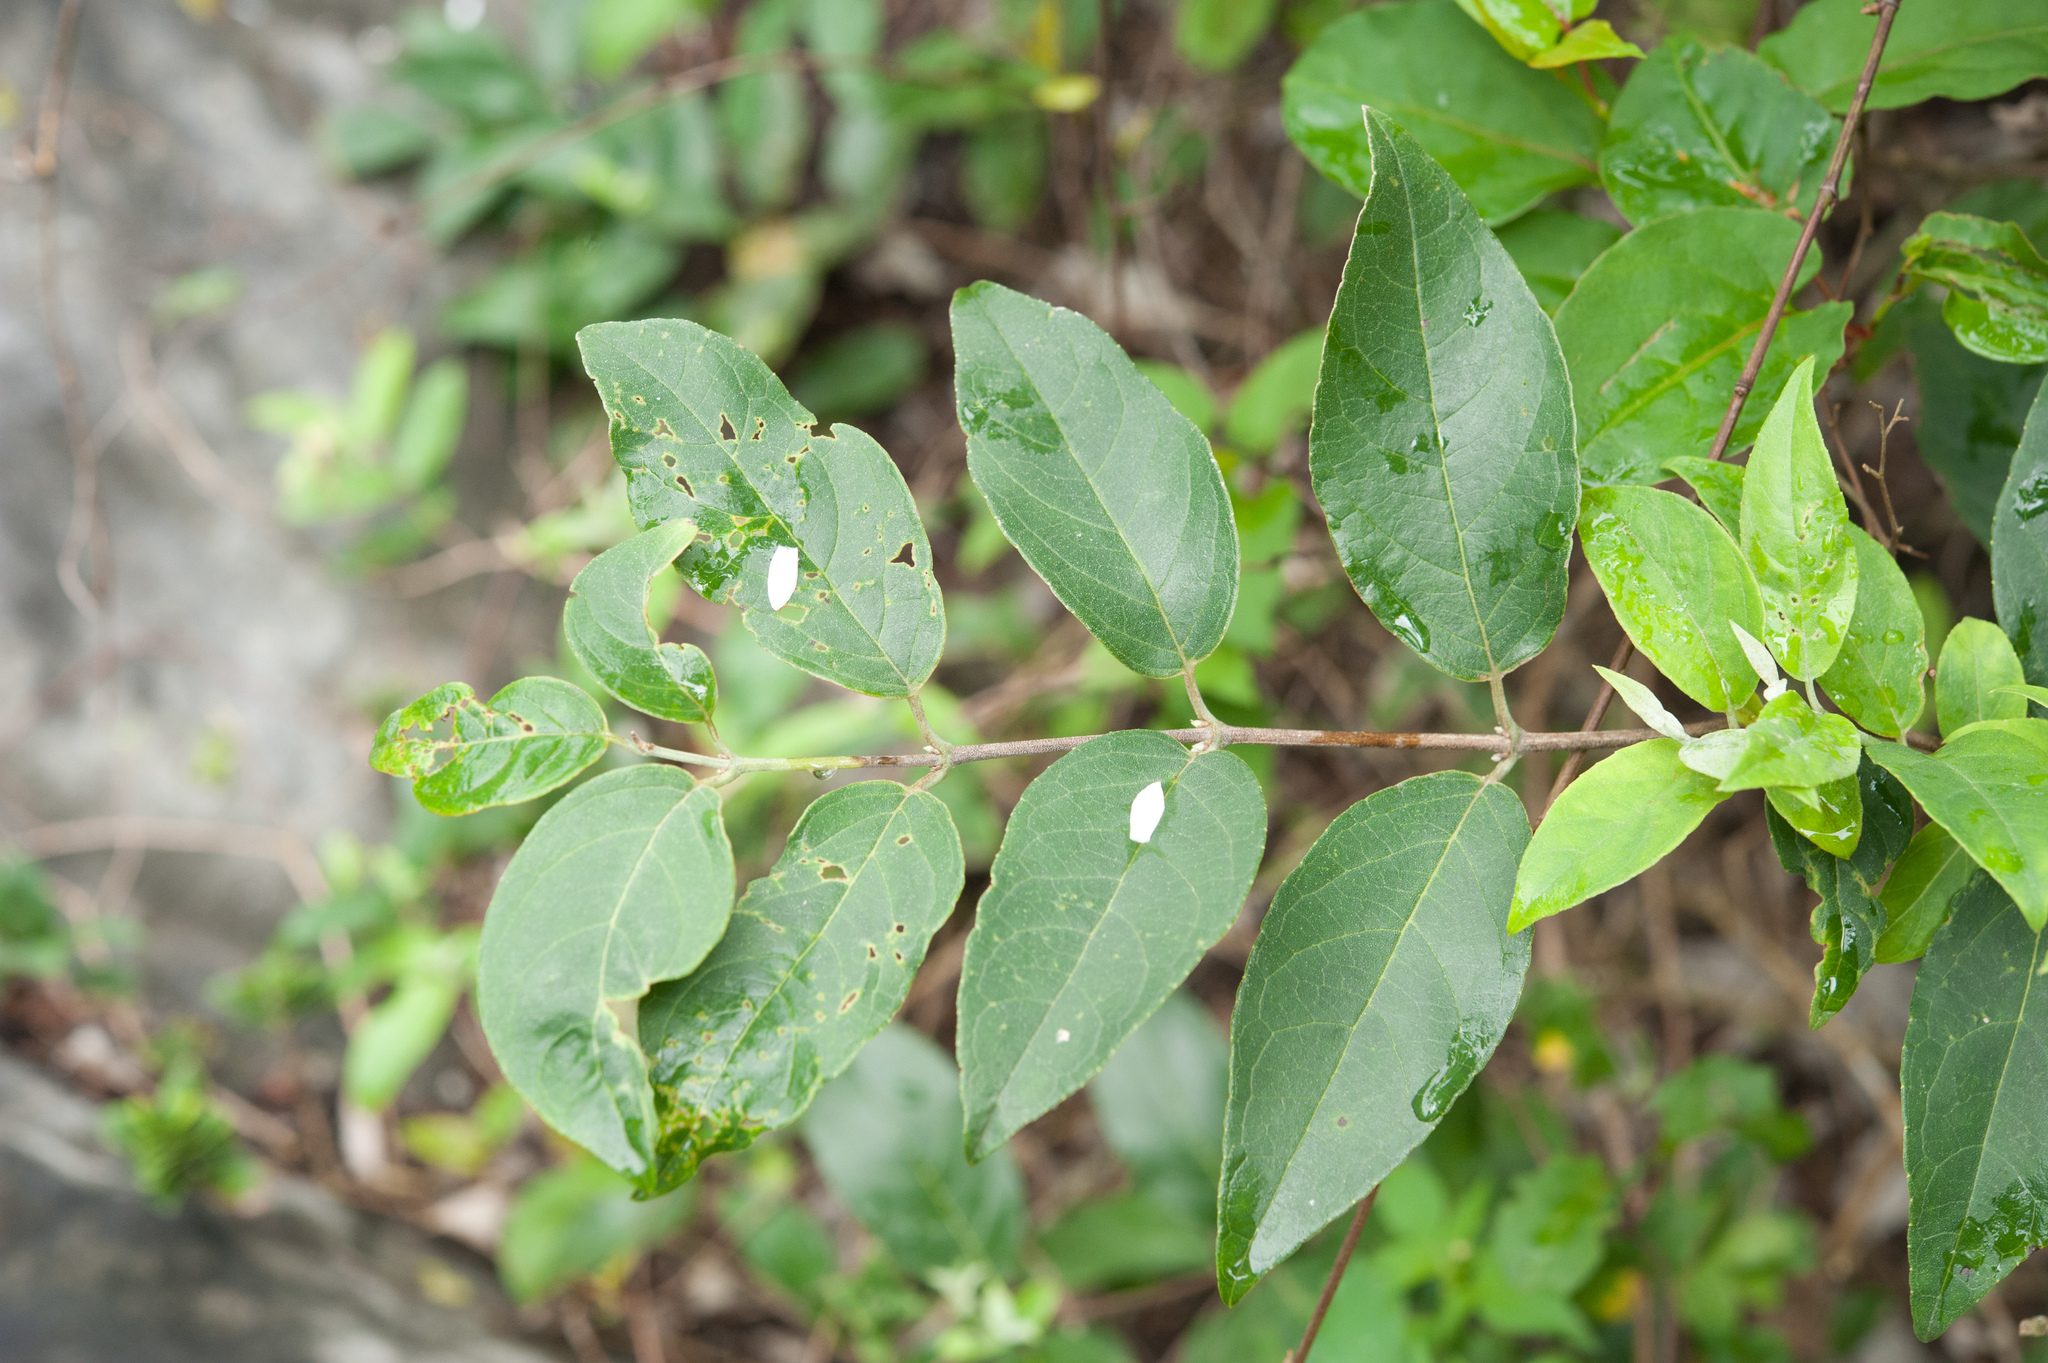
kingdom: Plantae
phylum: Tracheophyta
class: Magnoliopsida
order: Cornales
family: Hydrangeaceae
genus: Deutzia
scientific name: Deutzia pulchra
